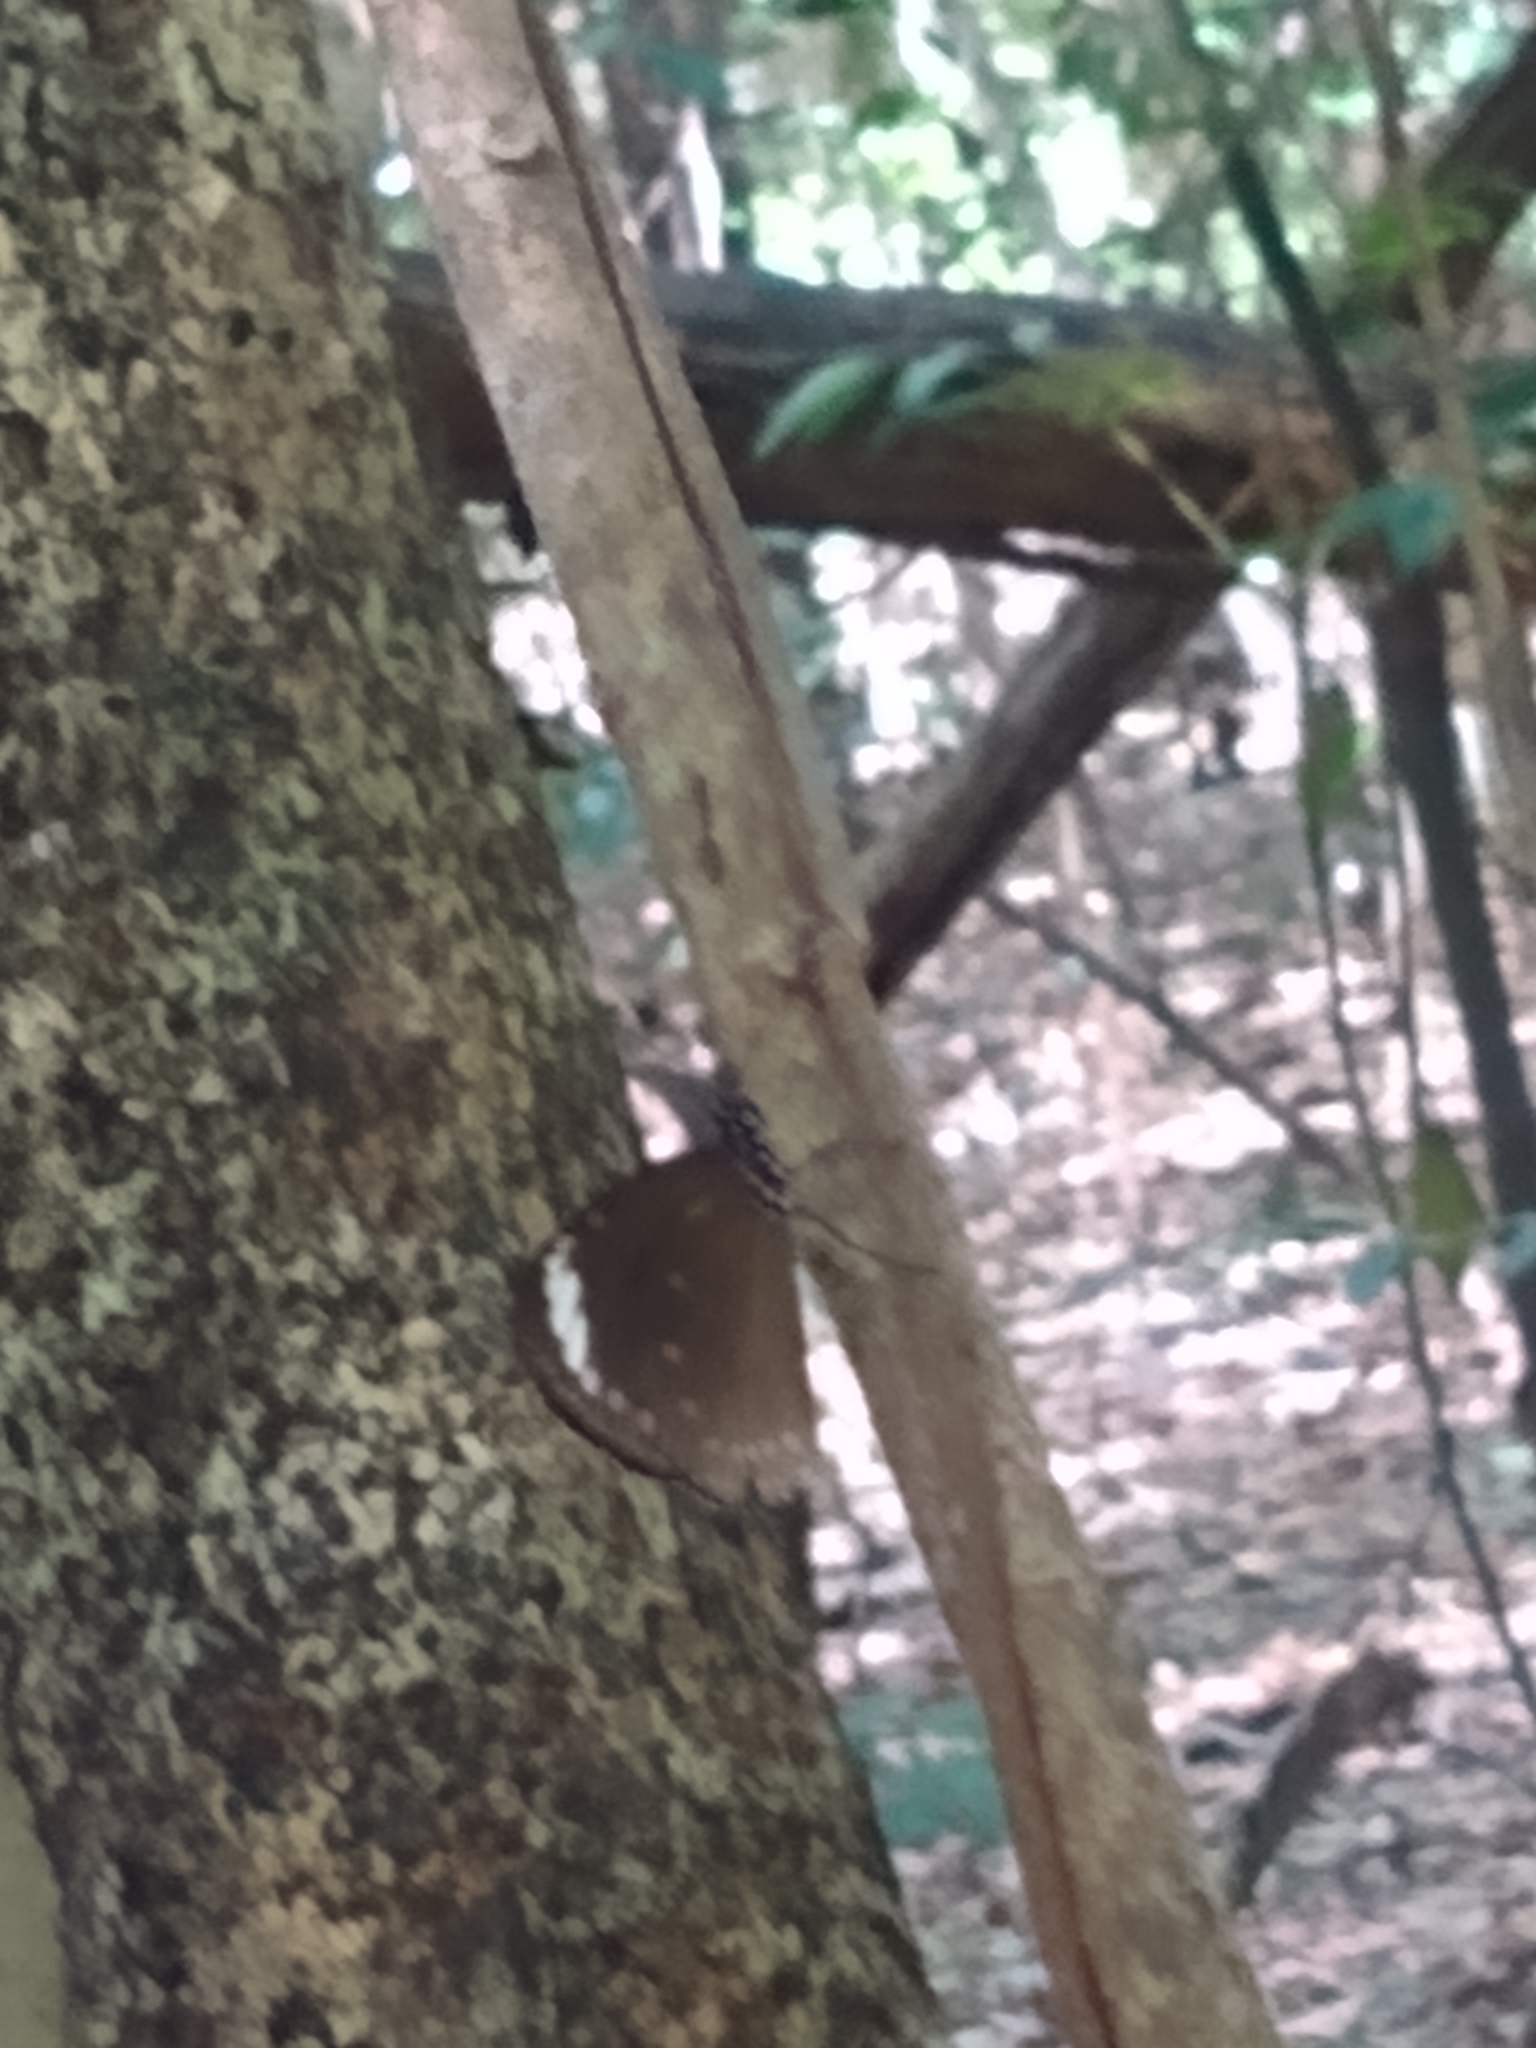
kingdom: Animalia
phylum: Arthropoda
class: Insecta
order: Lepidoptera
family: Nymphalidae
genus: Euploea
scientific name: Euploea tulliolus
